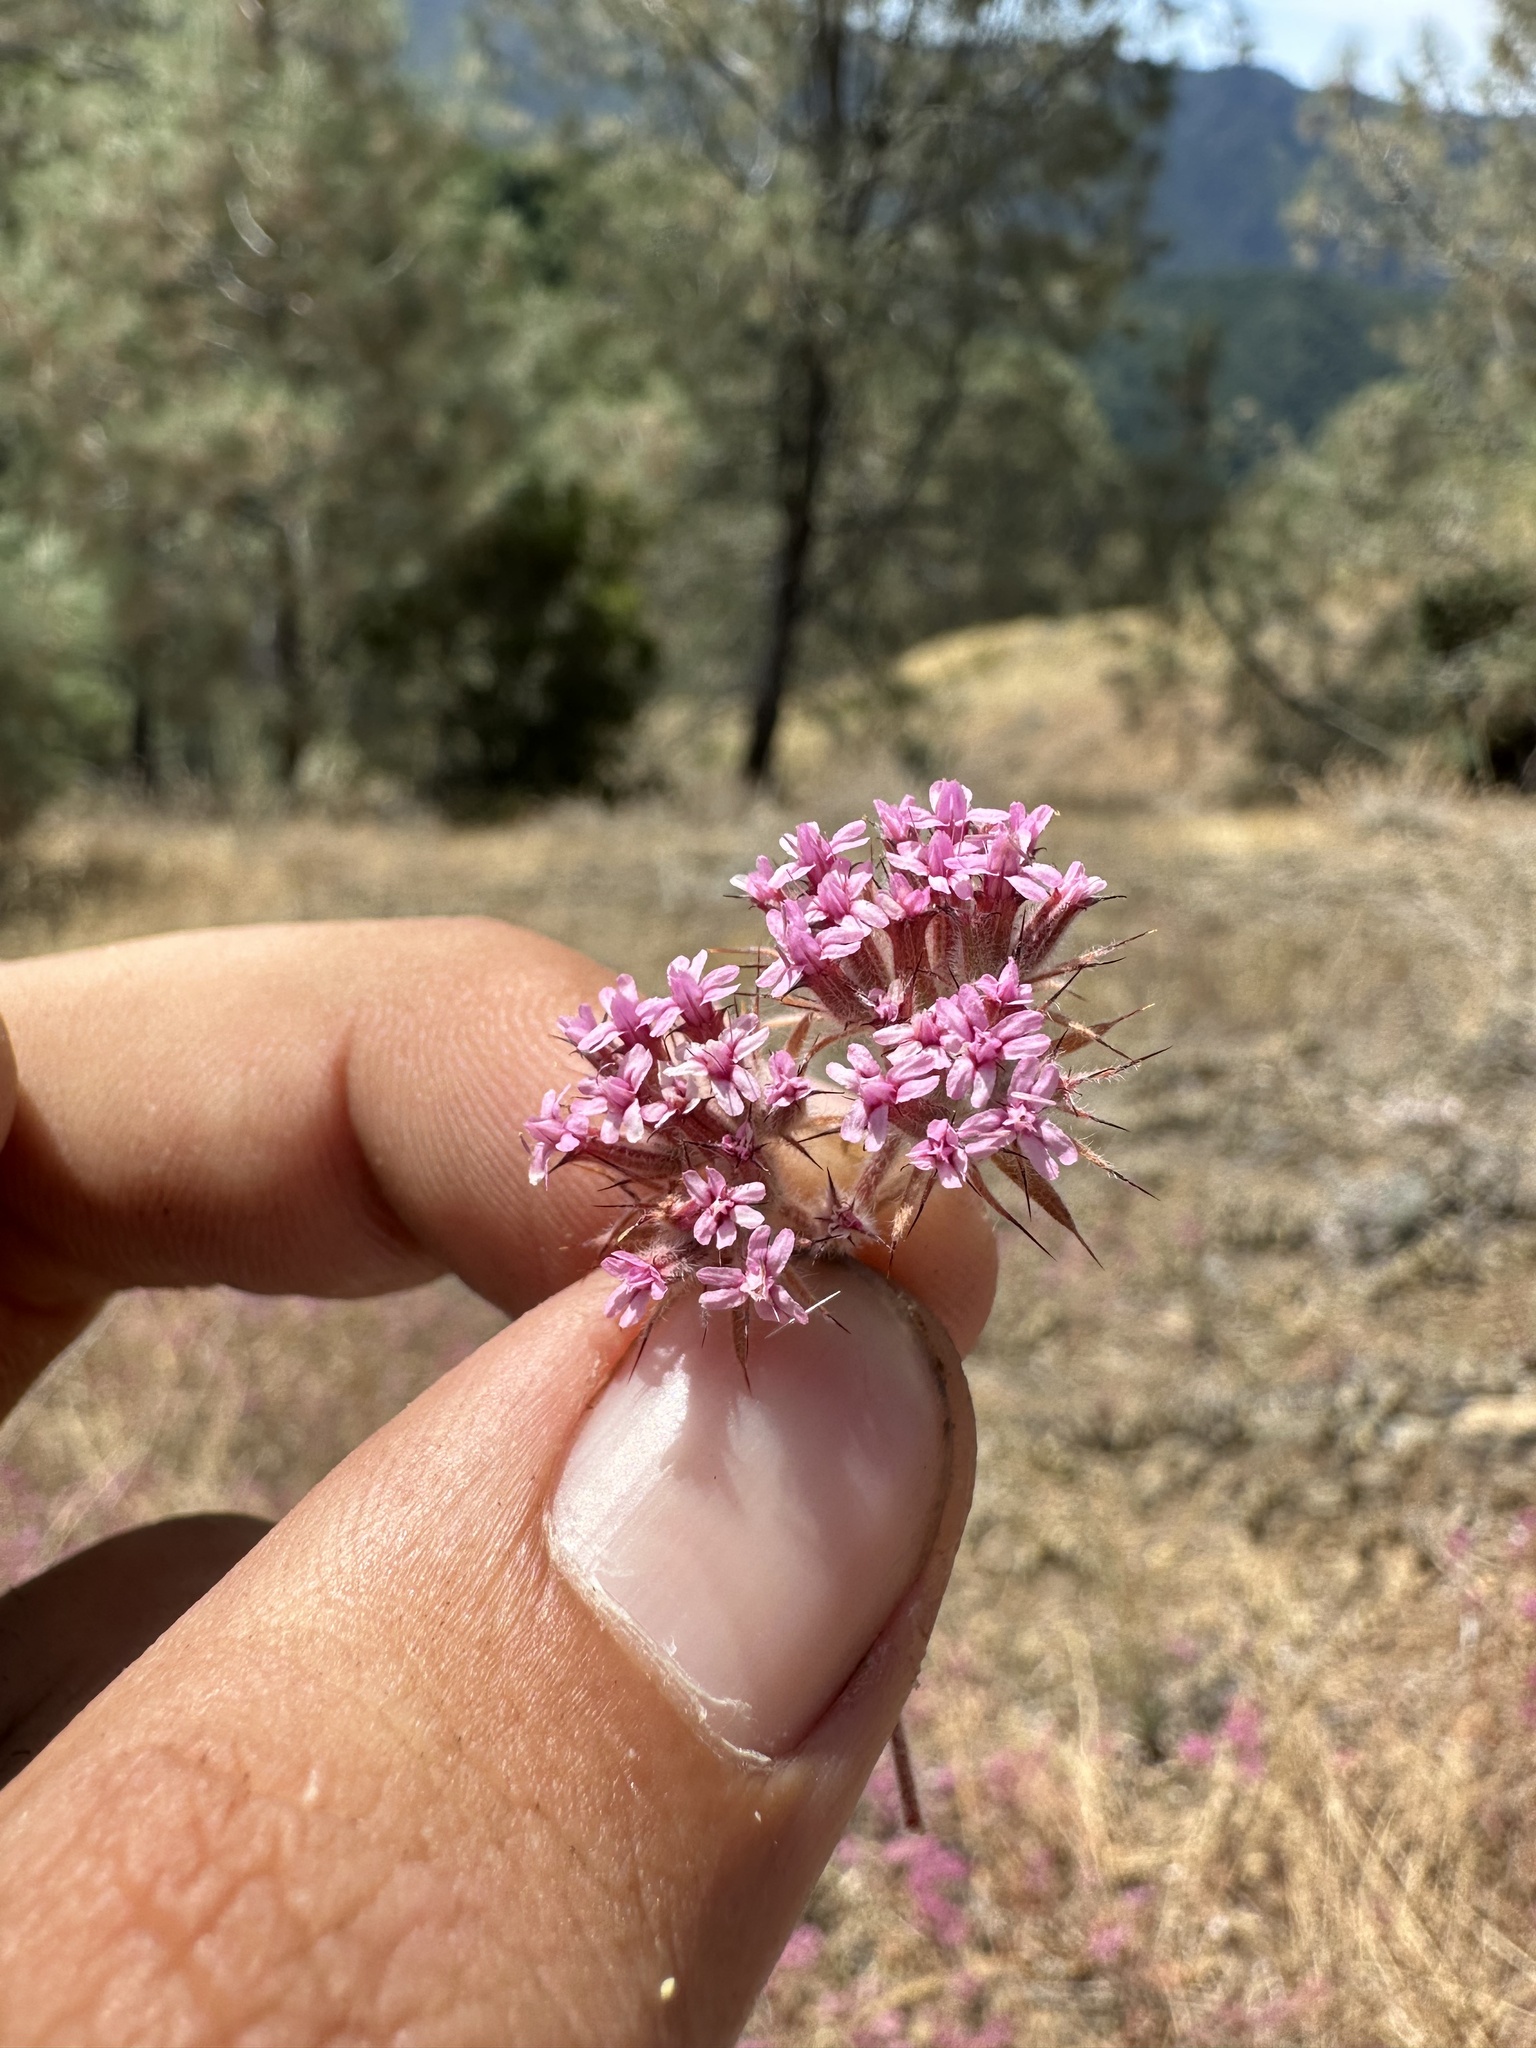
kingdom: Plantae
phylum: Tracheophyta
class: Magnoliopsida
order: Caryophyllales
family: Polygonaceae
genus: Chorizanthe
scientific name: Chorizanthe biloba
